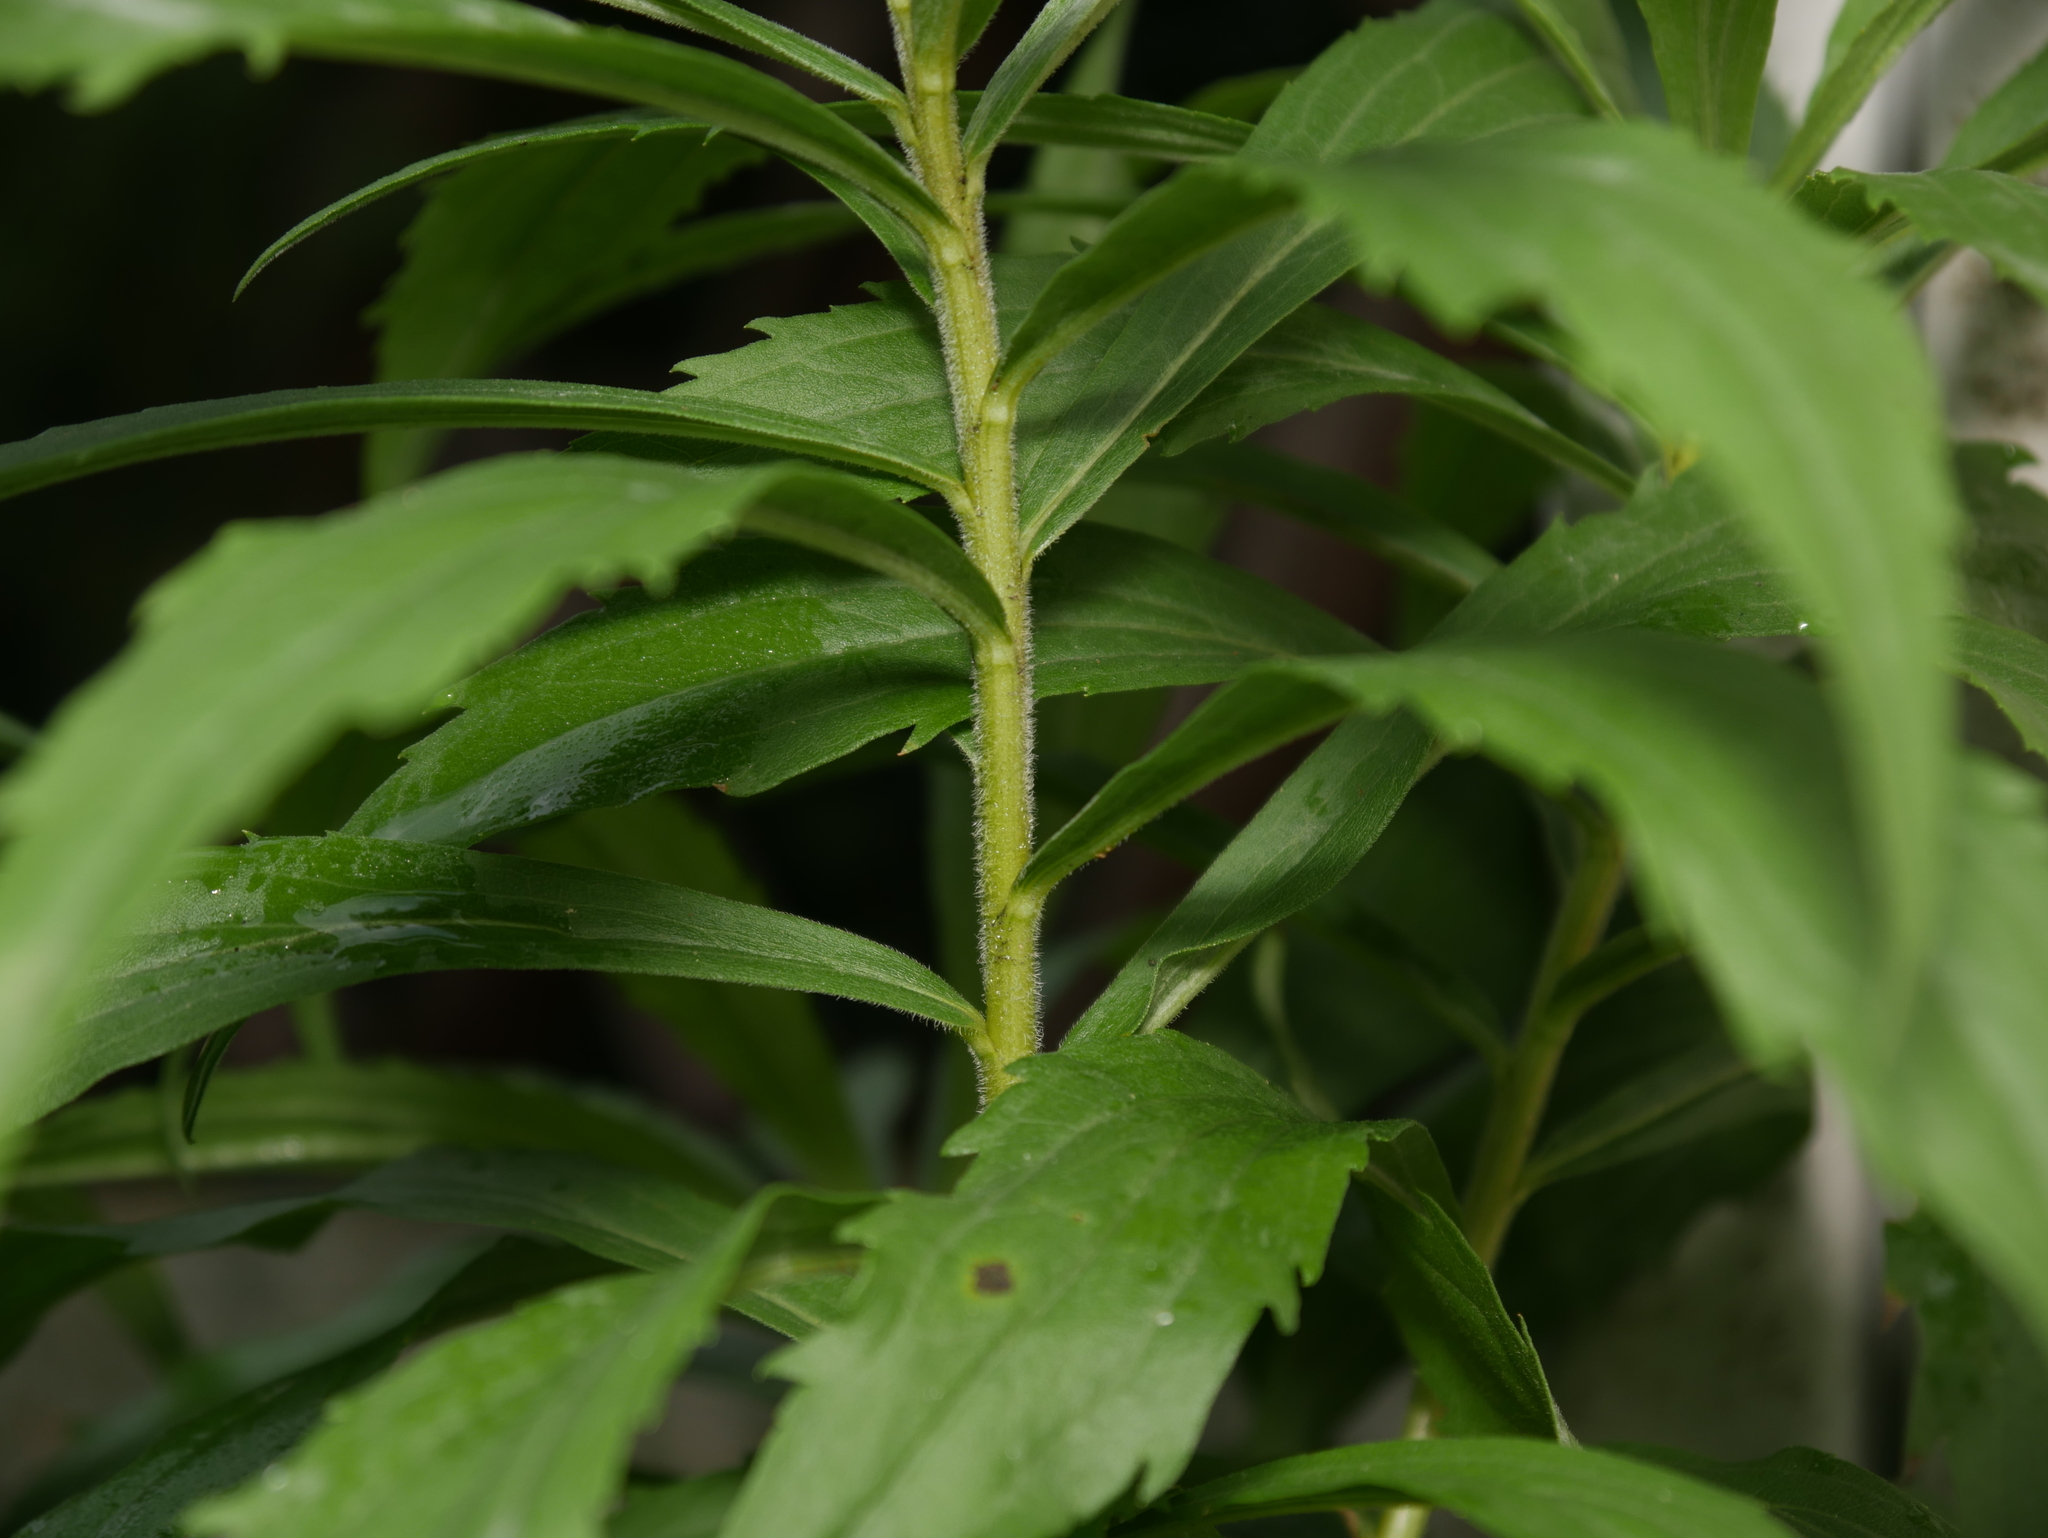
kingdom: Plantae
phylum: Tracheophyta
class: Magnoliopsida
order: Asterales
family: Asteraceae
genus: Solidago
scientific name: Solidago canadensis
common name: Canada goldenrod
